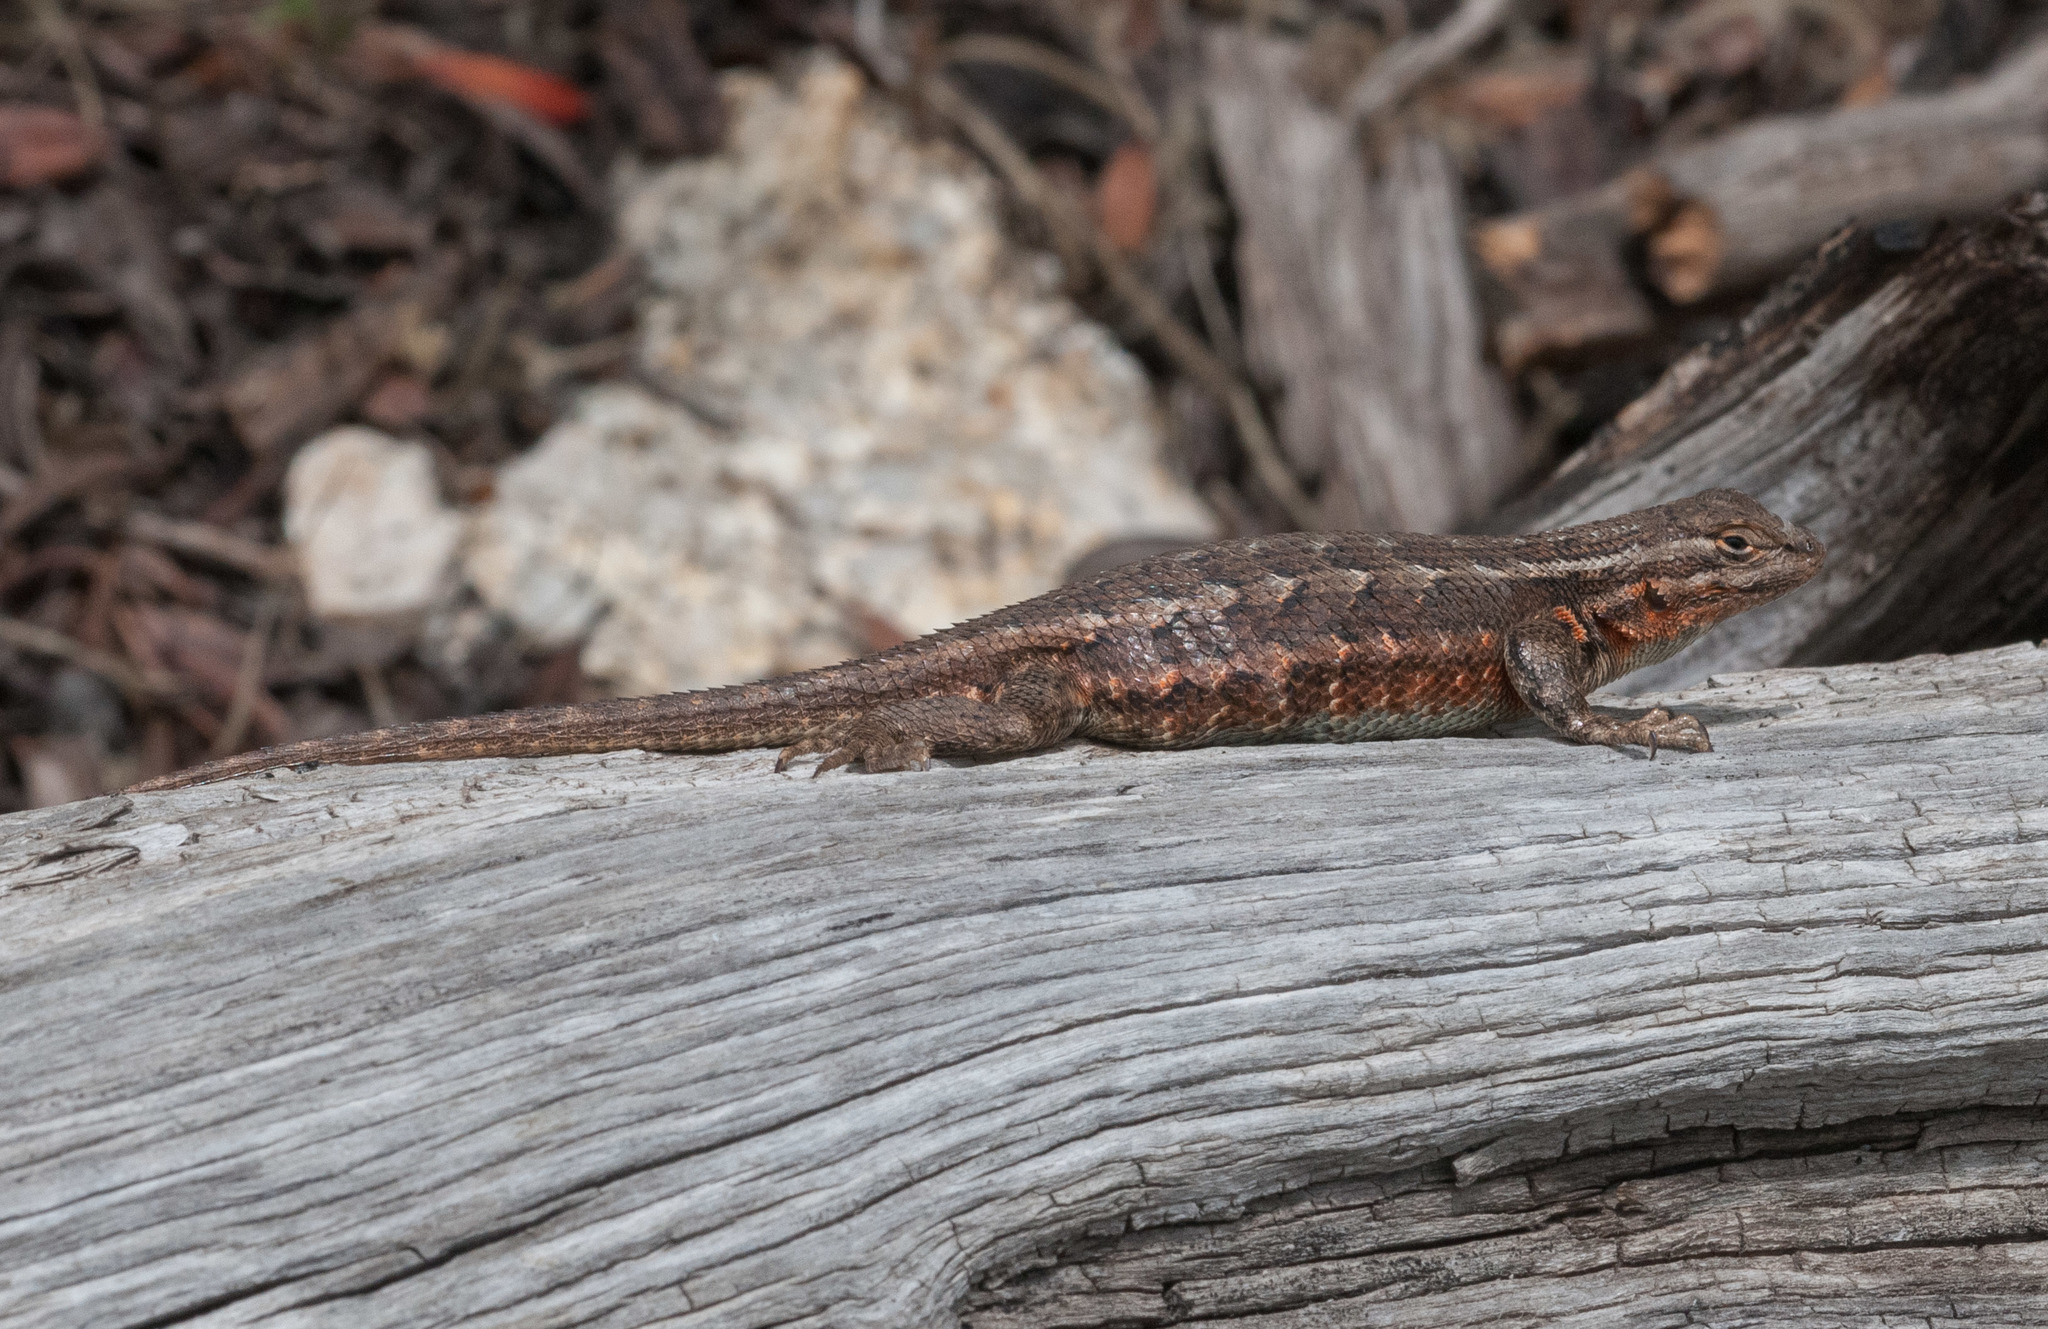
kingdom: Animalia
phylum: Chordata
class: Squamata
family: Phrynosomatidae
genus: Sceloporus
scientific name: Sceloporus graciosus
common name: Sagebrush lizard
